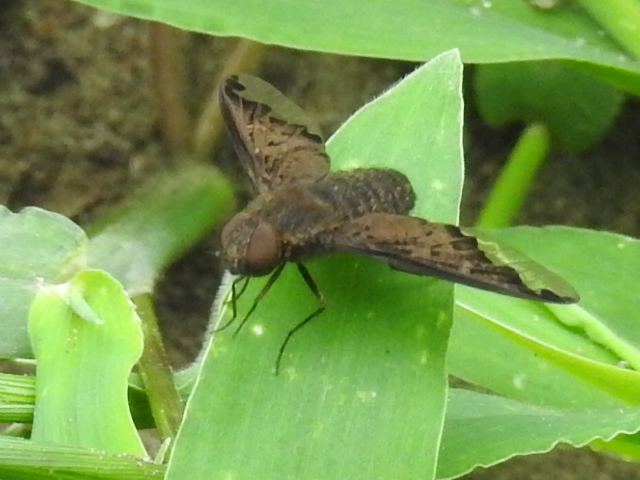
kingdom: Animalia
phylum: Arthropoda
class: Insecta
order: Diptera
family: Bombyliidae
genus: Hemipenthes
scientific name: Hemipenthes sinuosus
